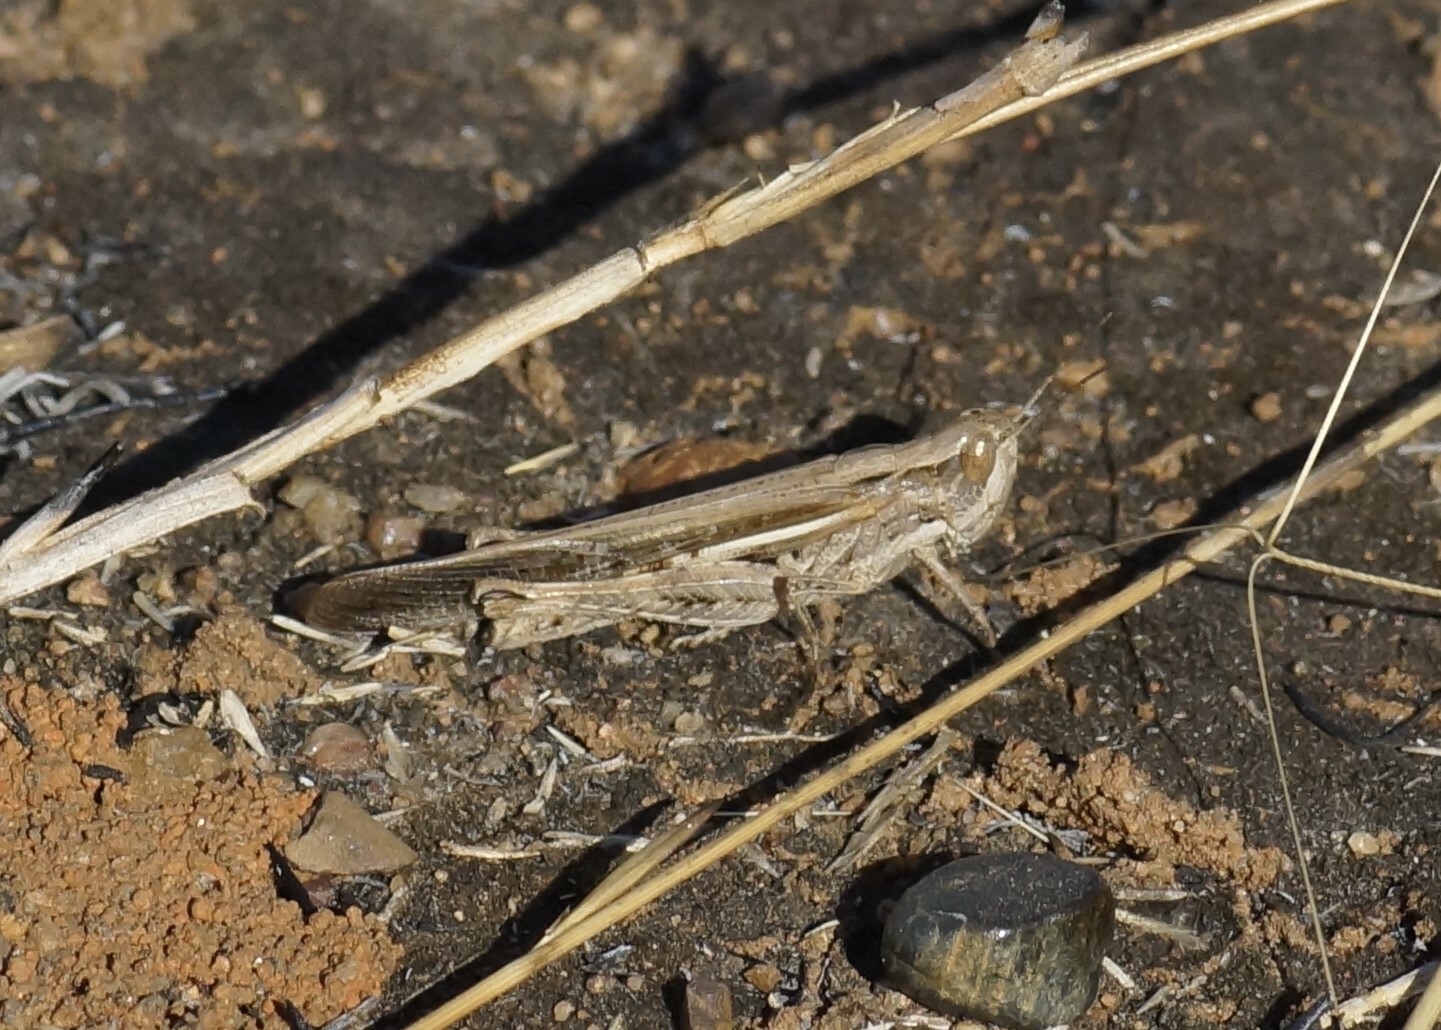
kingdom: Animalia
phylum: Arthropoda
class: Insecta
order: Orthoptera
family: Acrididae
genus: Aiolopus
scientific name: Aiolopus thalassinus
